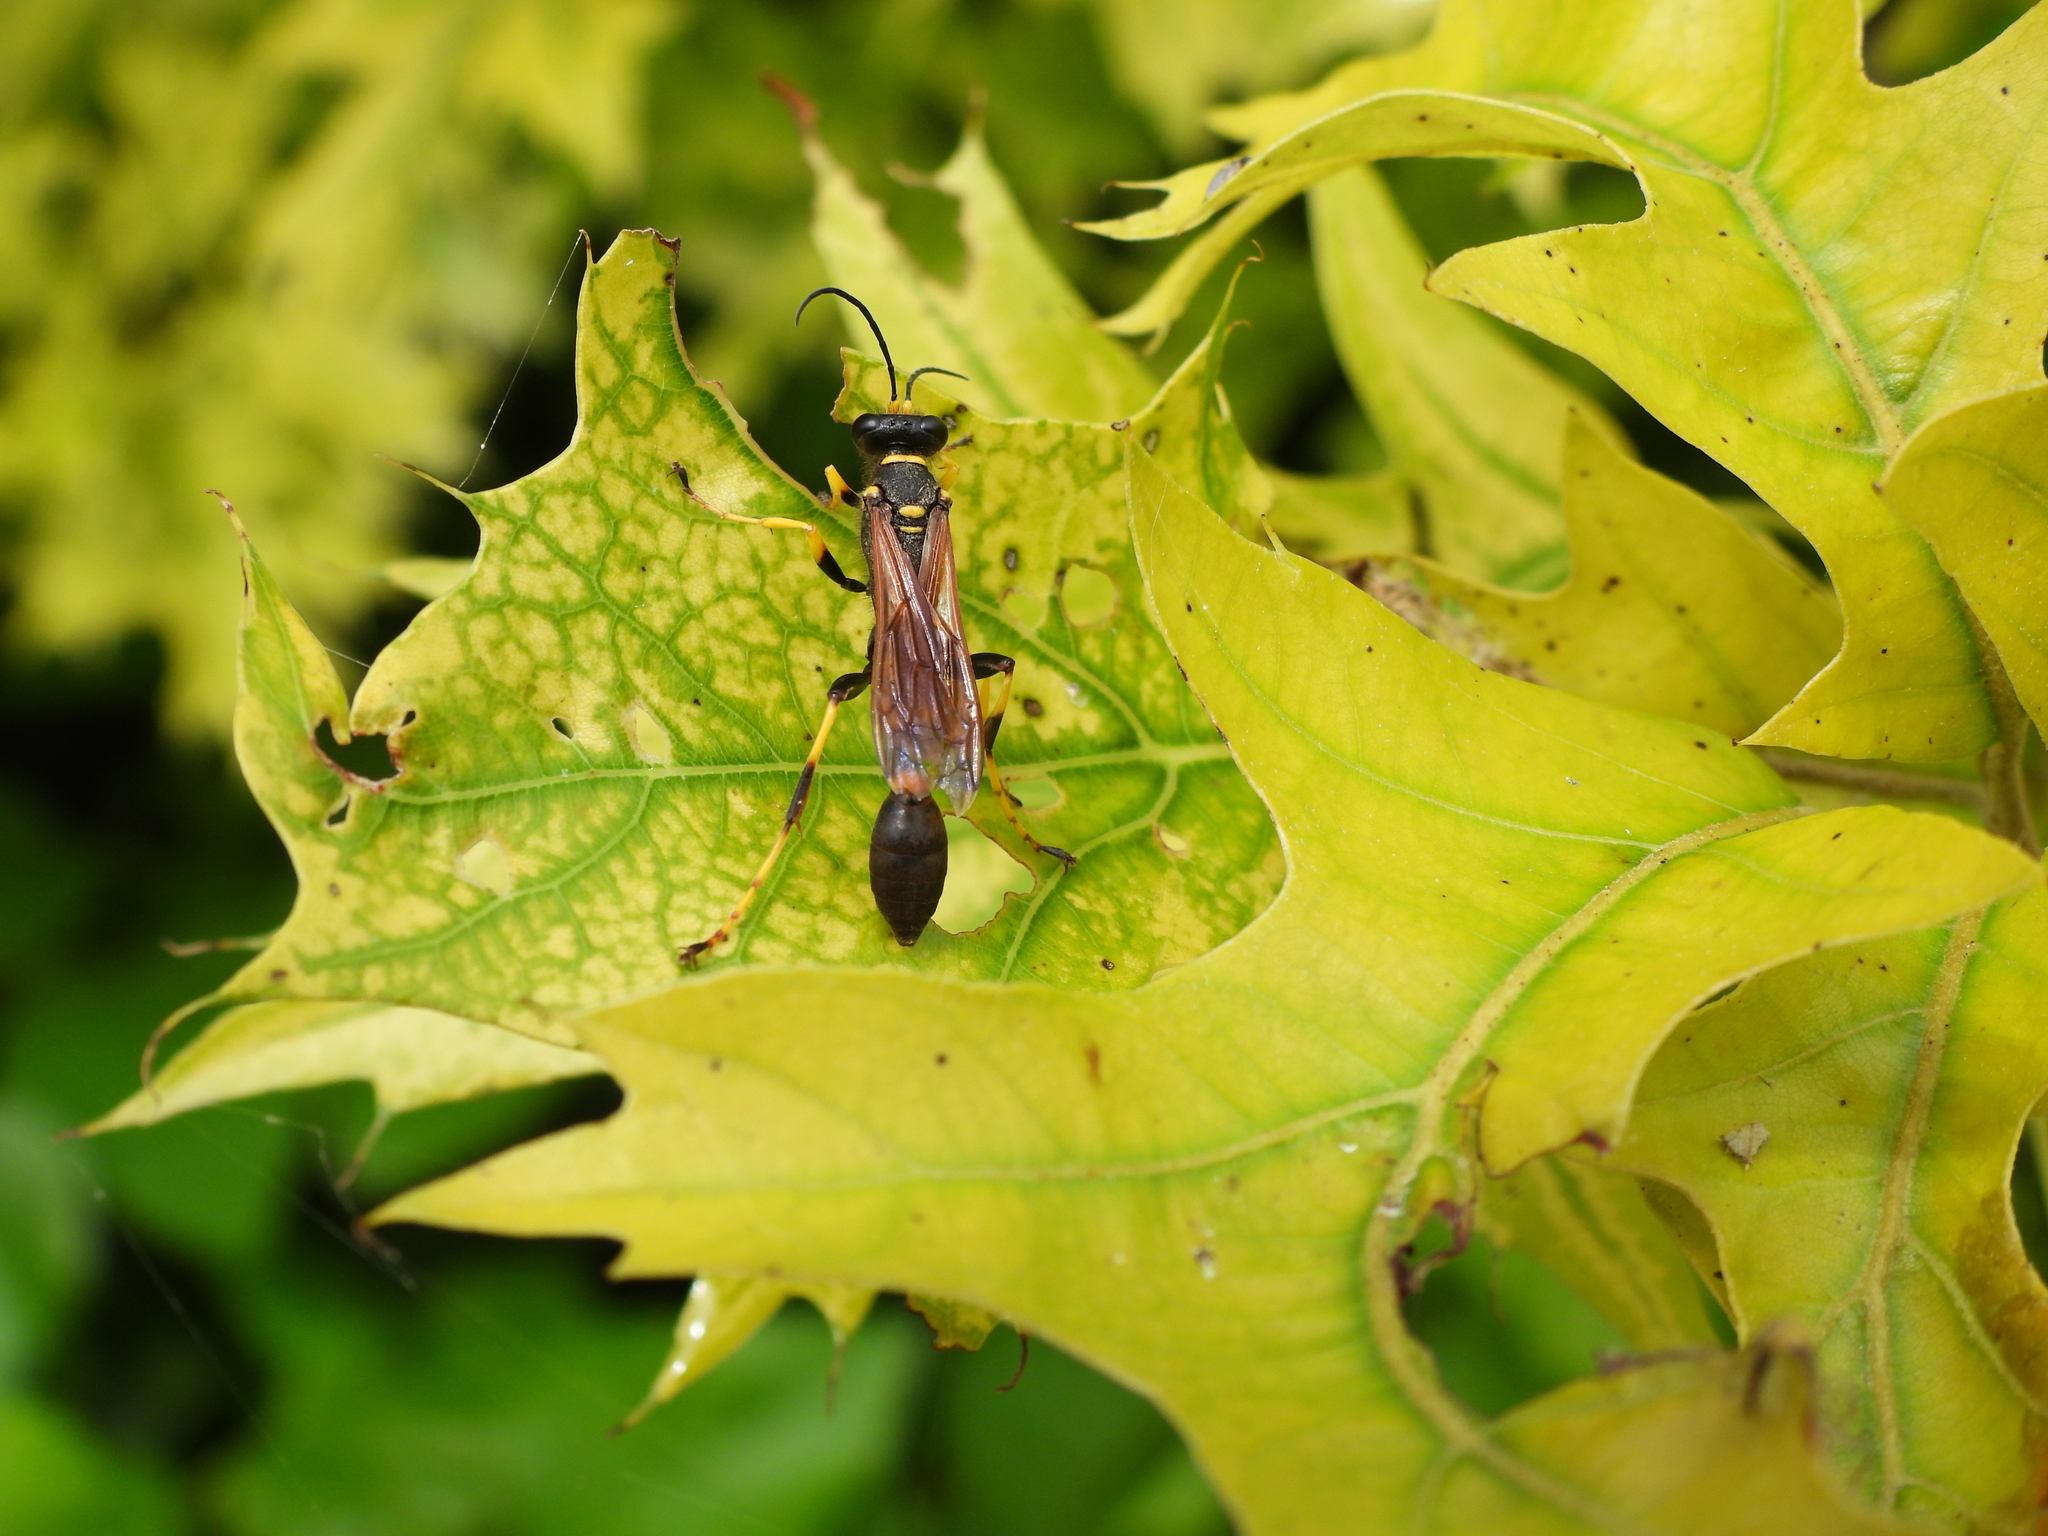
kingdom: Animalia
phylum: Arthropoda
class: Insecta
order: Hymenoptera
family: Sphecidae
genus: Sceliphron
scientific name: Sceliphron caementarium
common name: Mud dauber
